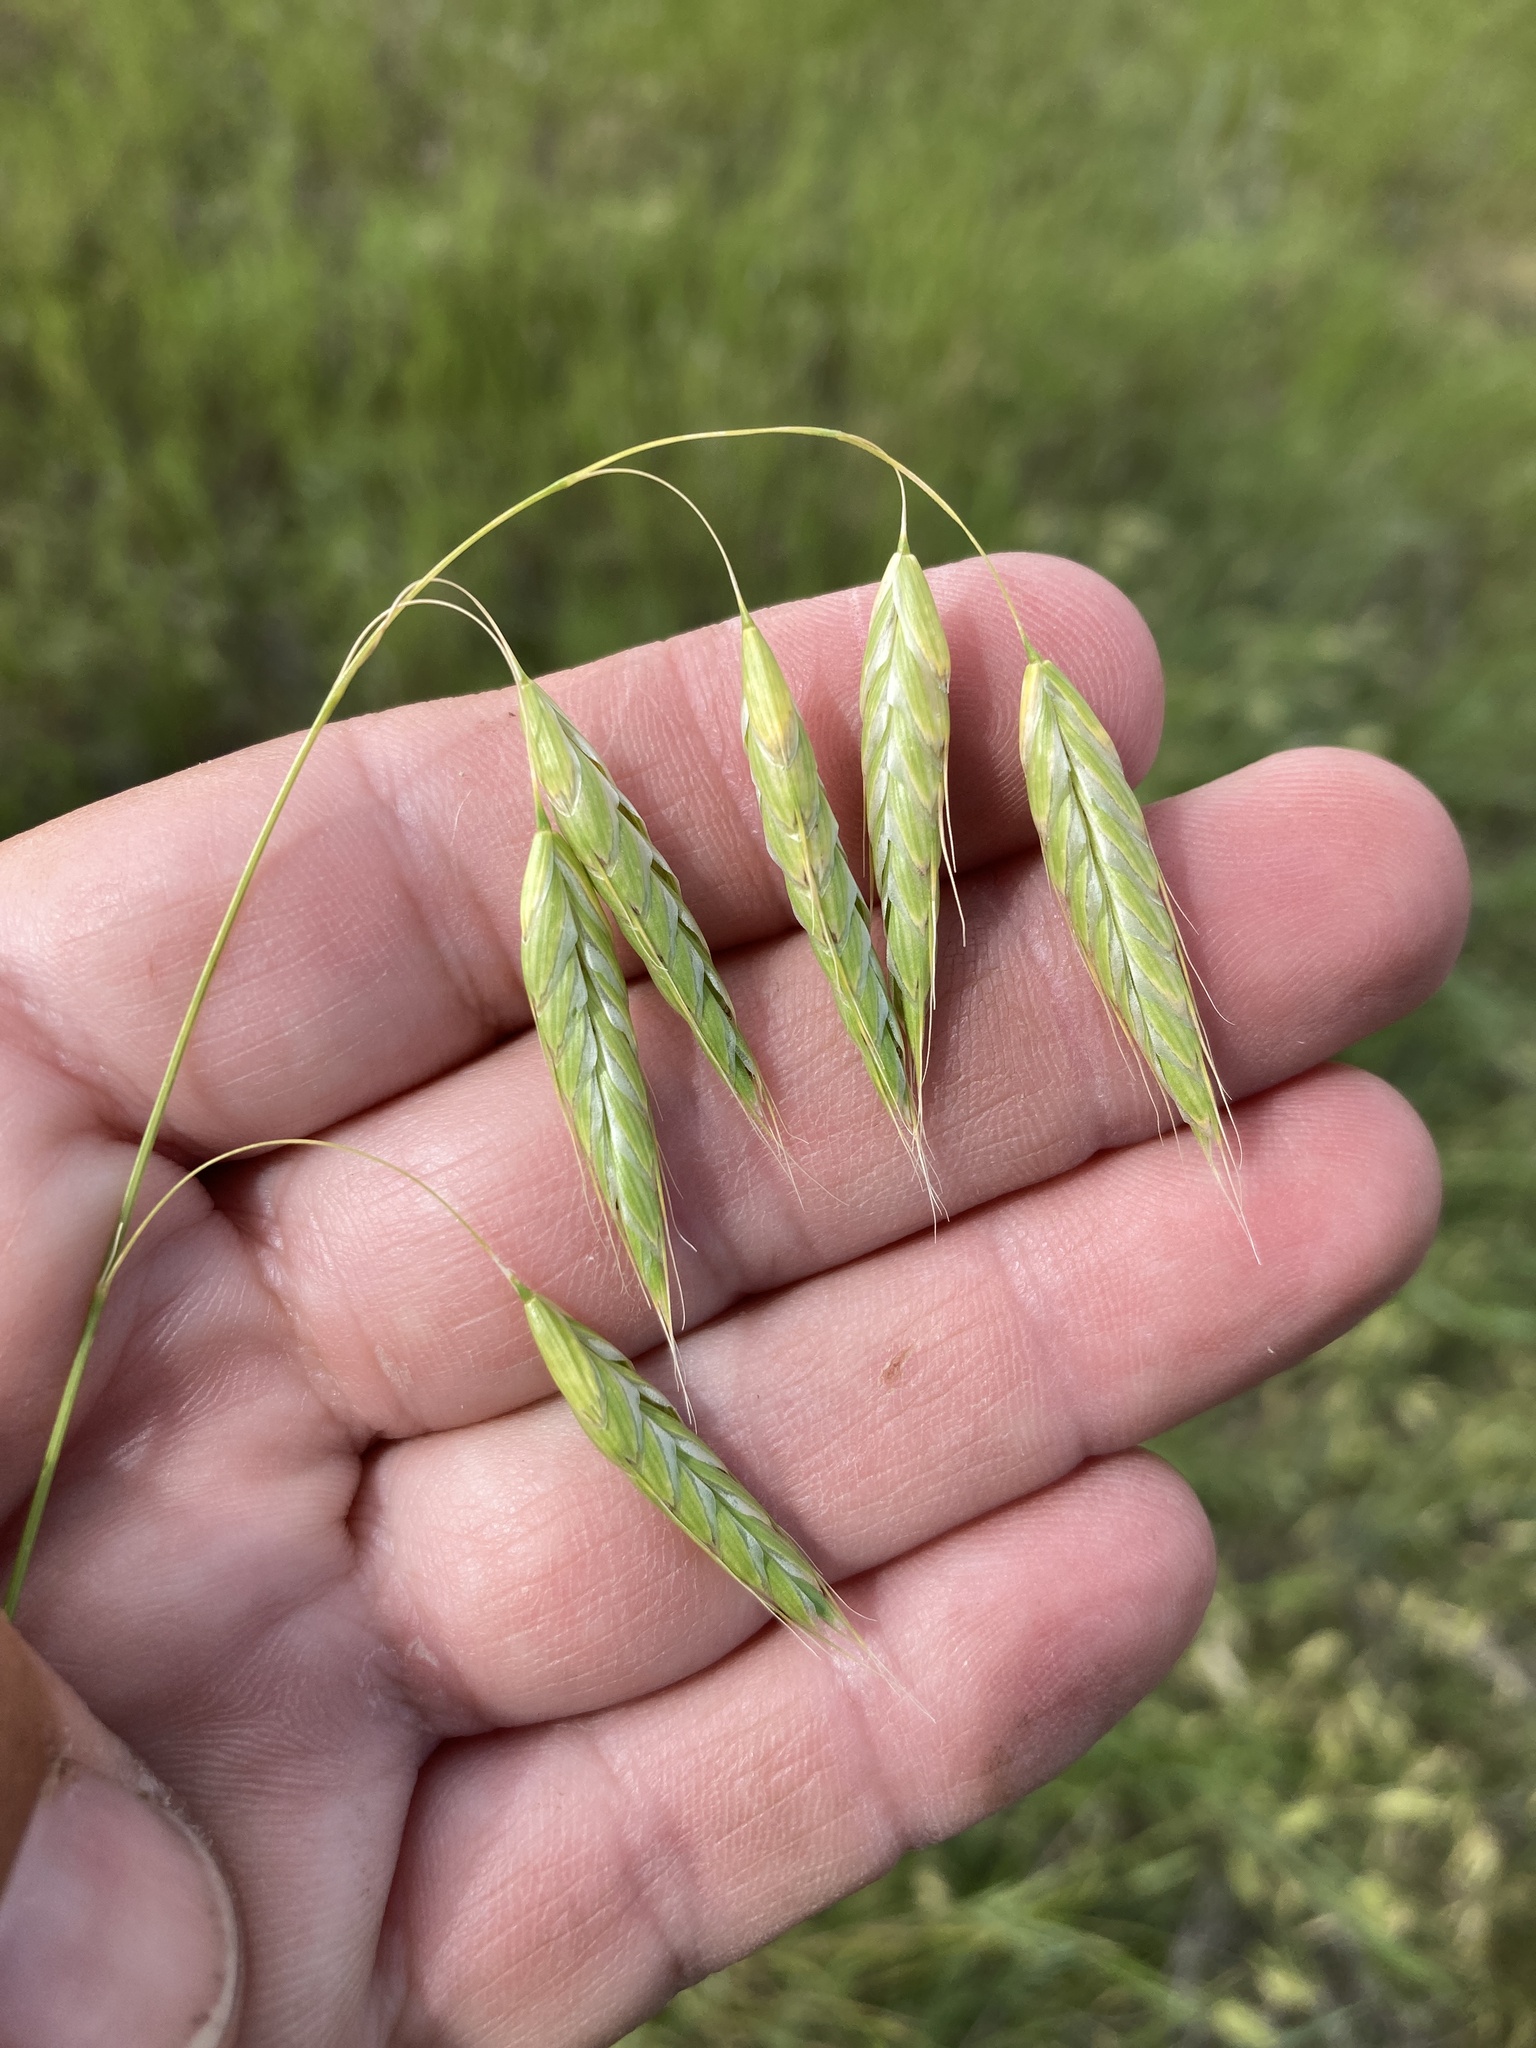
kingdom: Plantae
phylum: Tracheophyta
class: Liliopsida
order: Poales
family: Poaceae
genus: Bromus
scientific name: Bromus squarrosus
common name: Corn brome
